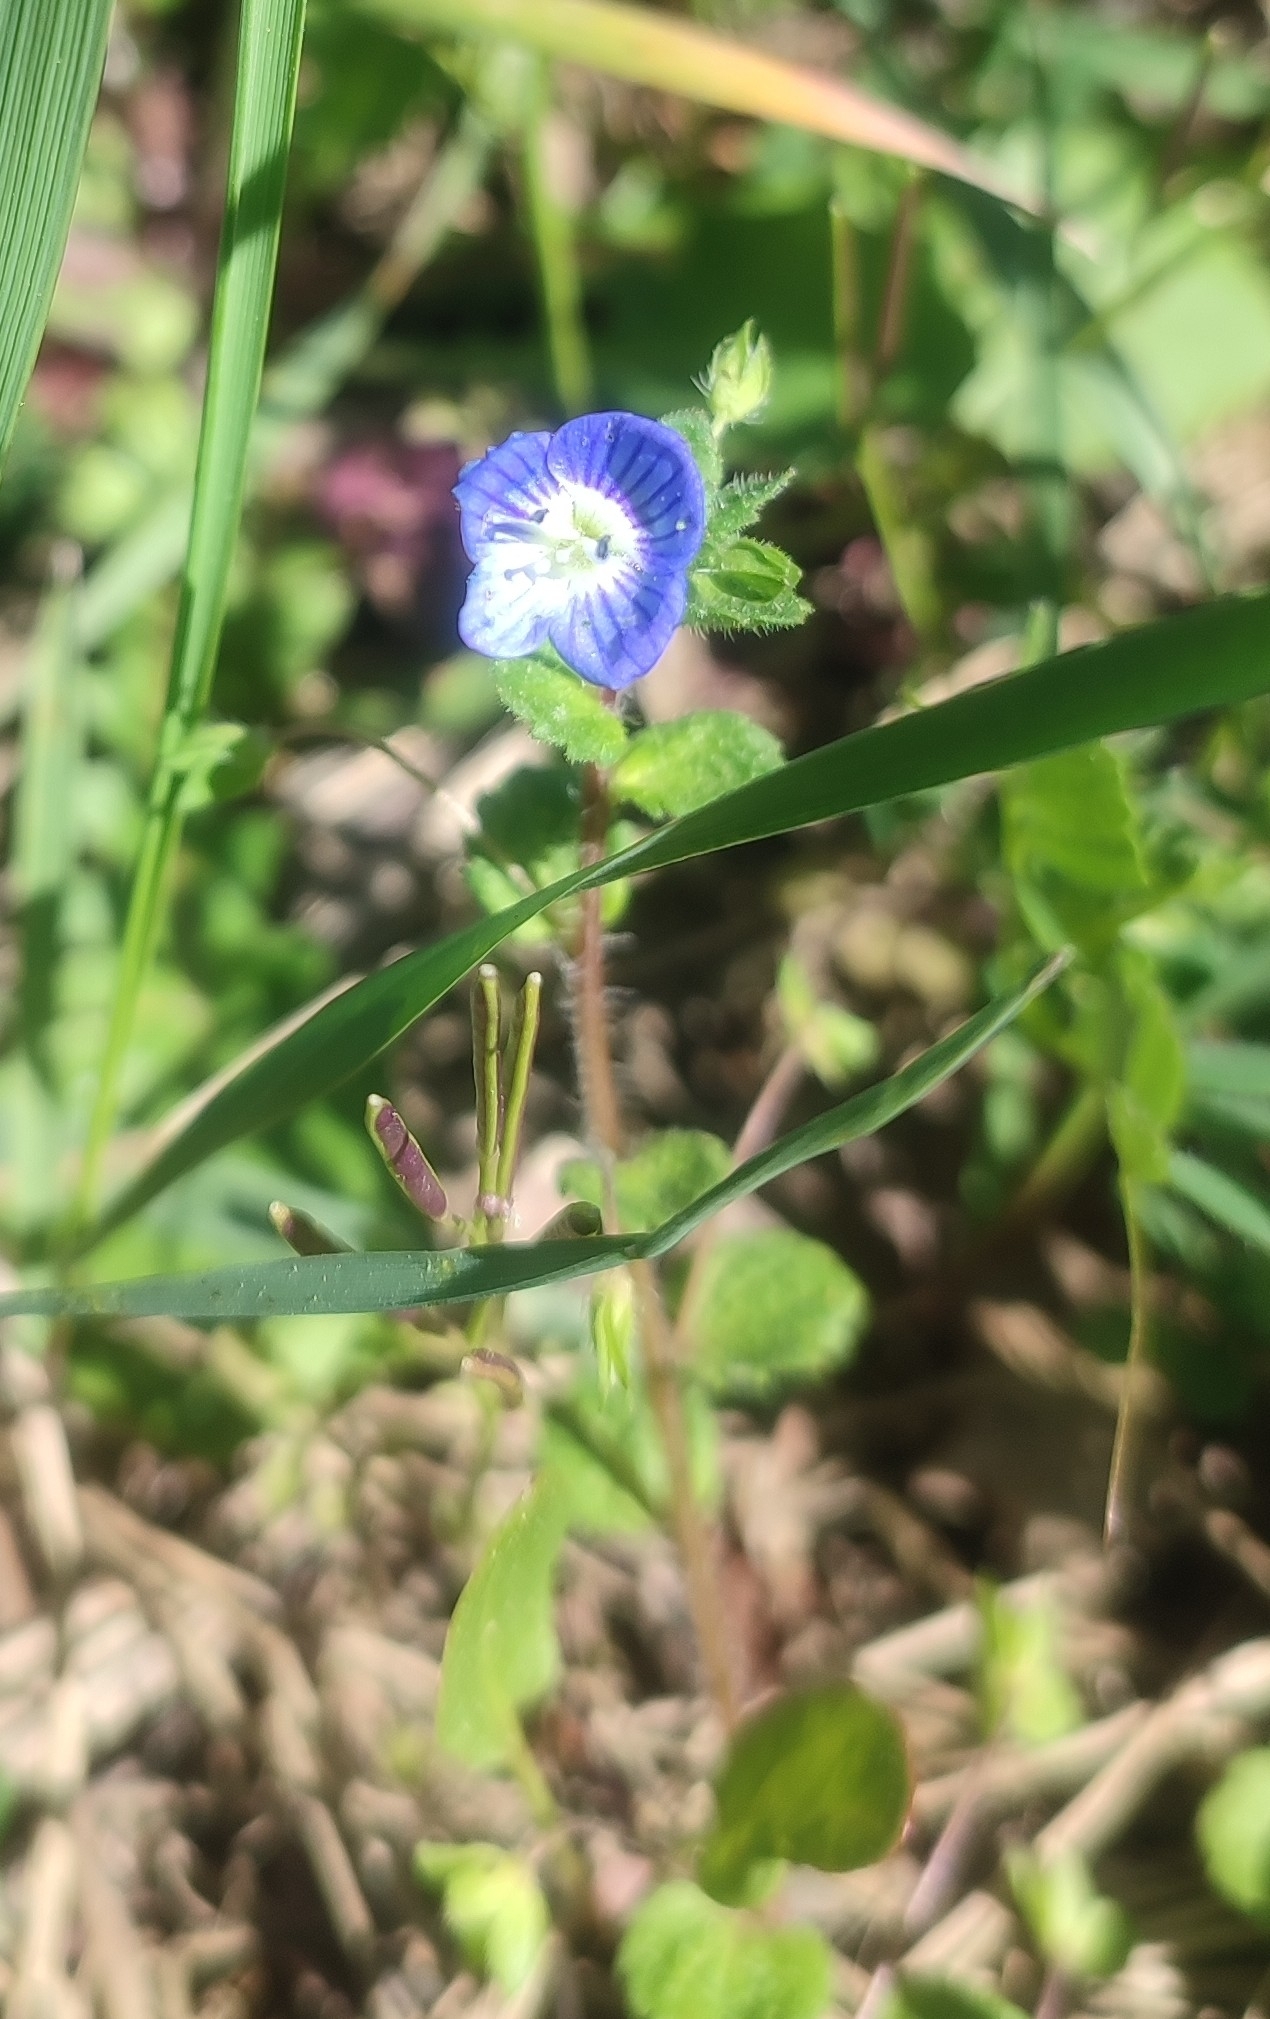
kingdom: Plantae
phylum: Tracheophyta
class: Magnoliopsida
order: Lamiales
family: Plantaginaceae
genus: Veronica
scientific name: Veronica persica
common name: Common field-speedwell
